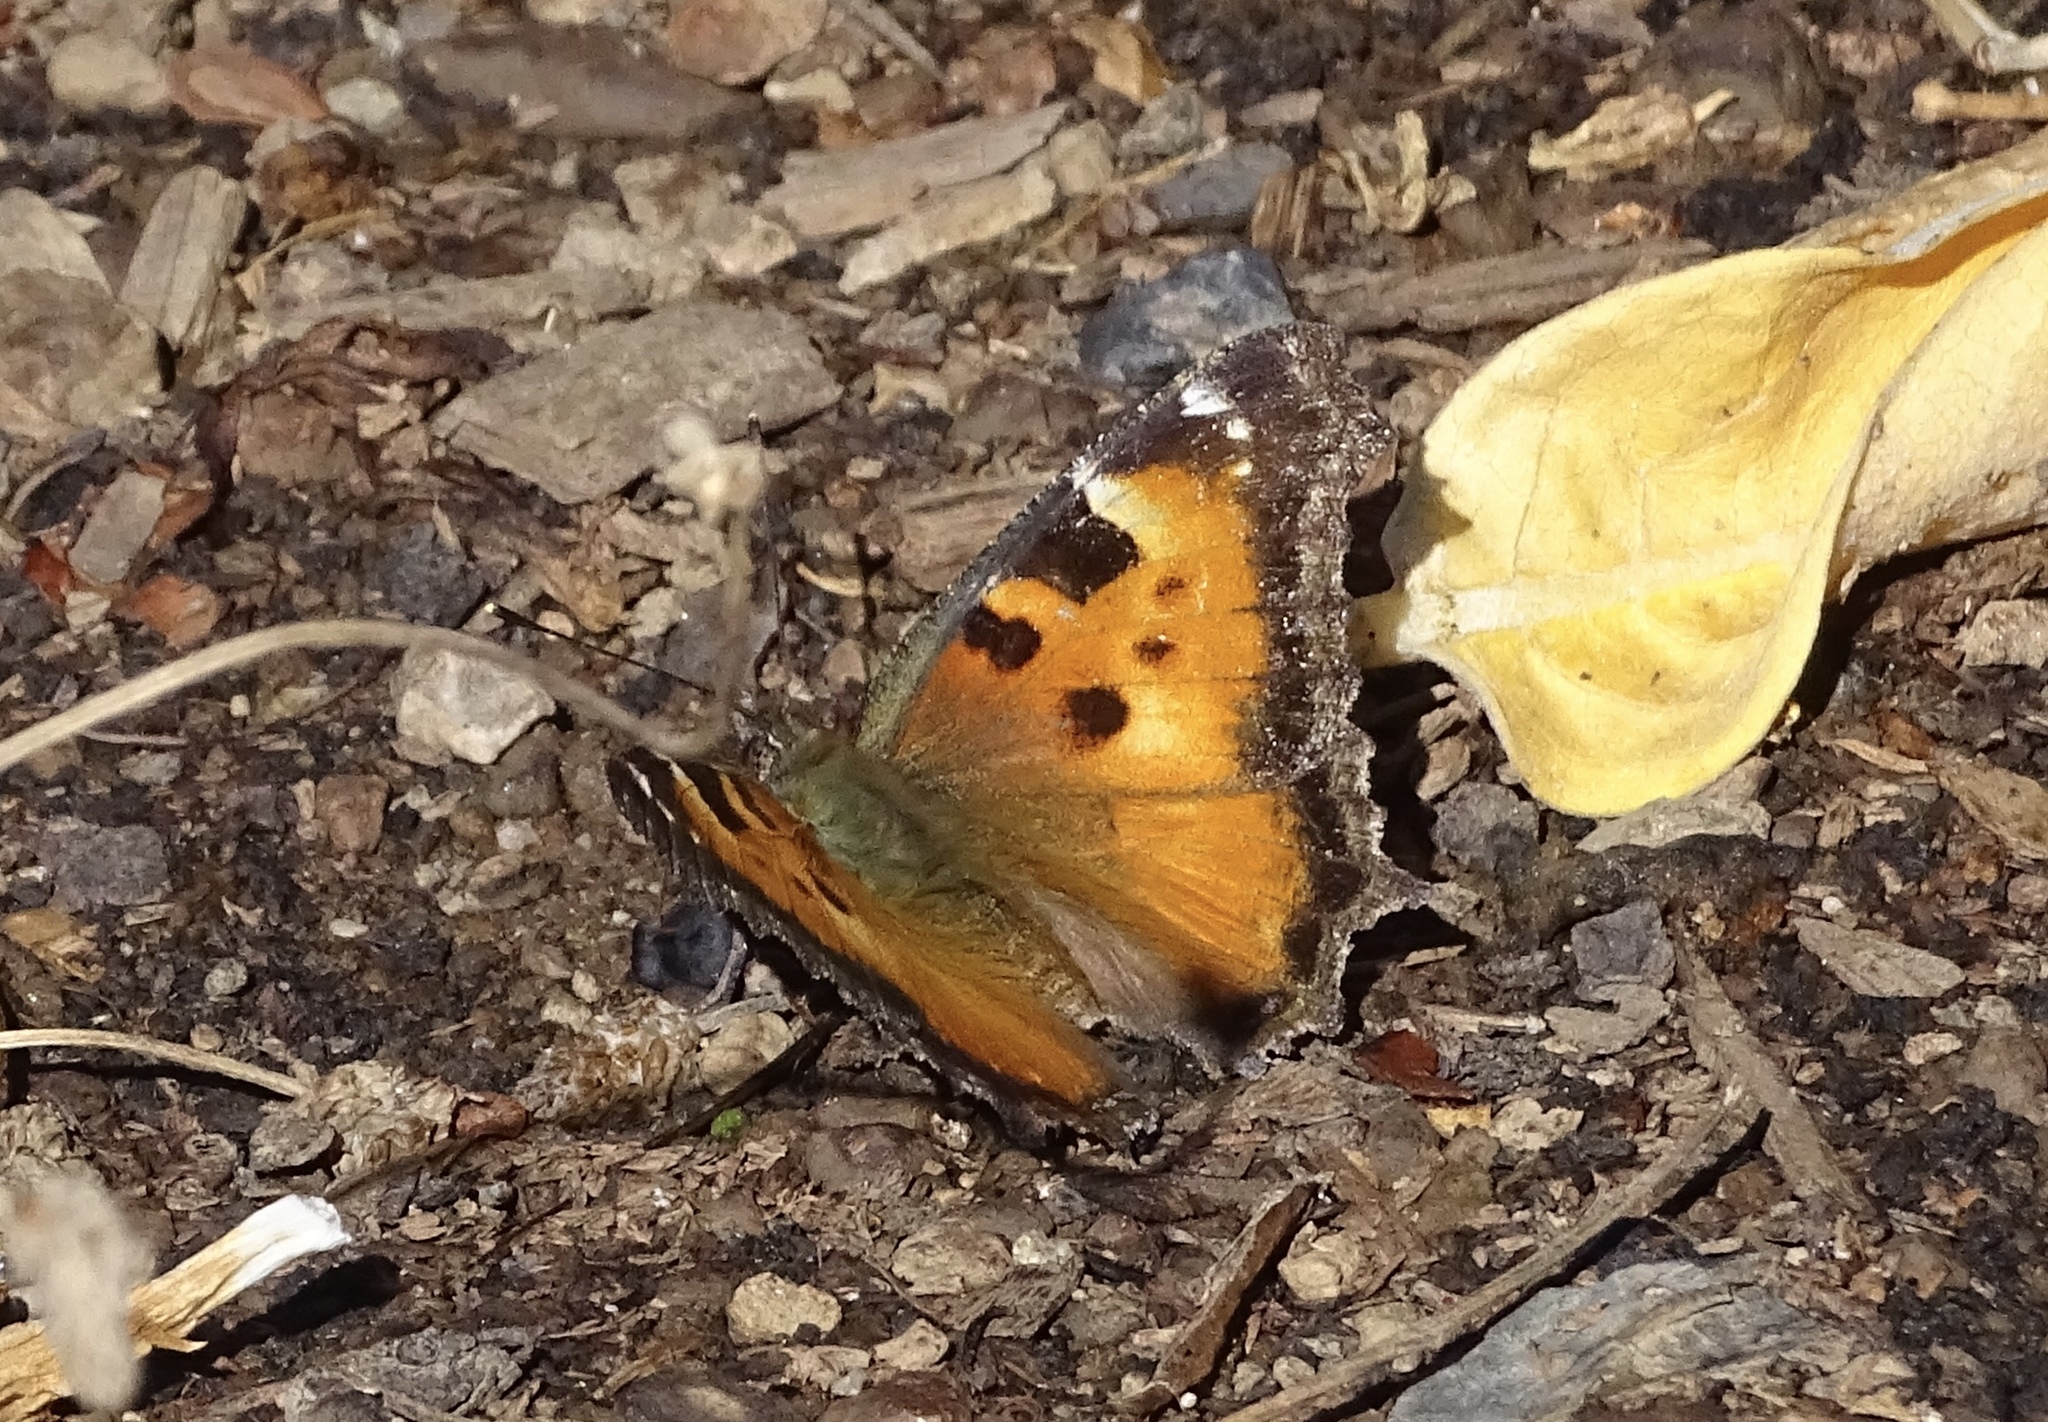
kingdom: Animalia
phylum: Arthropoda
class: Insecta
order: Lepidoptera
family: Nymphalidae
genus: Nymphalis
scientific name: Nymphalis californica
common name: California tortoiseshell
